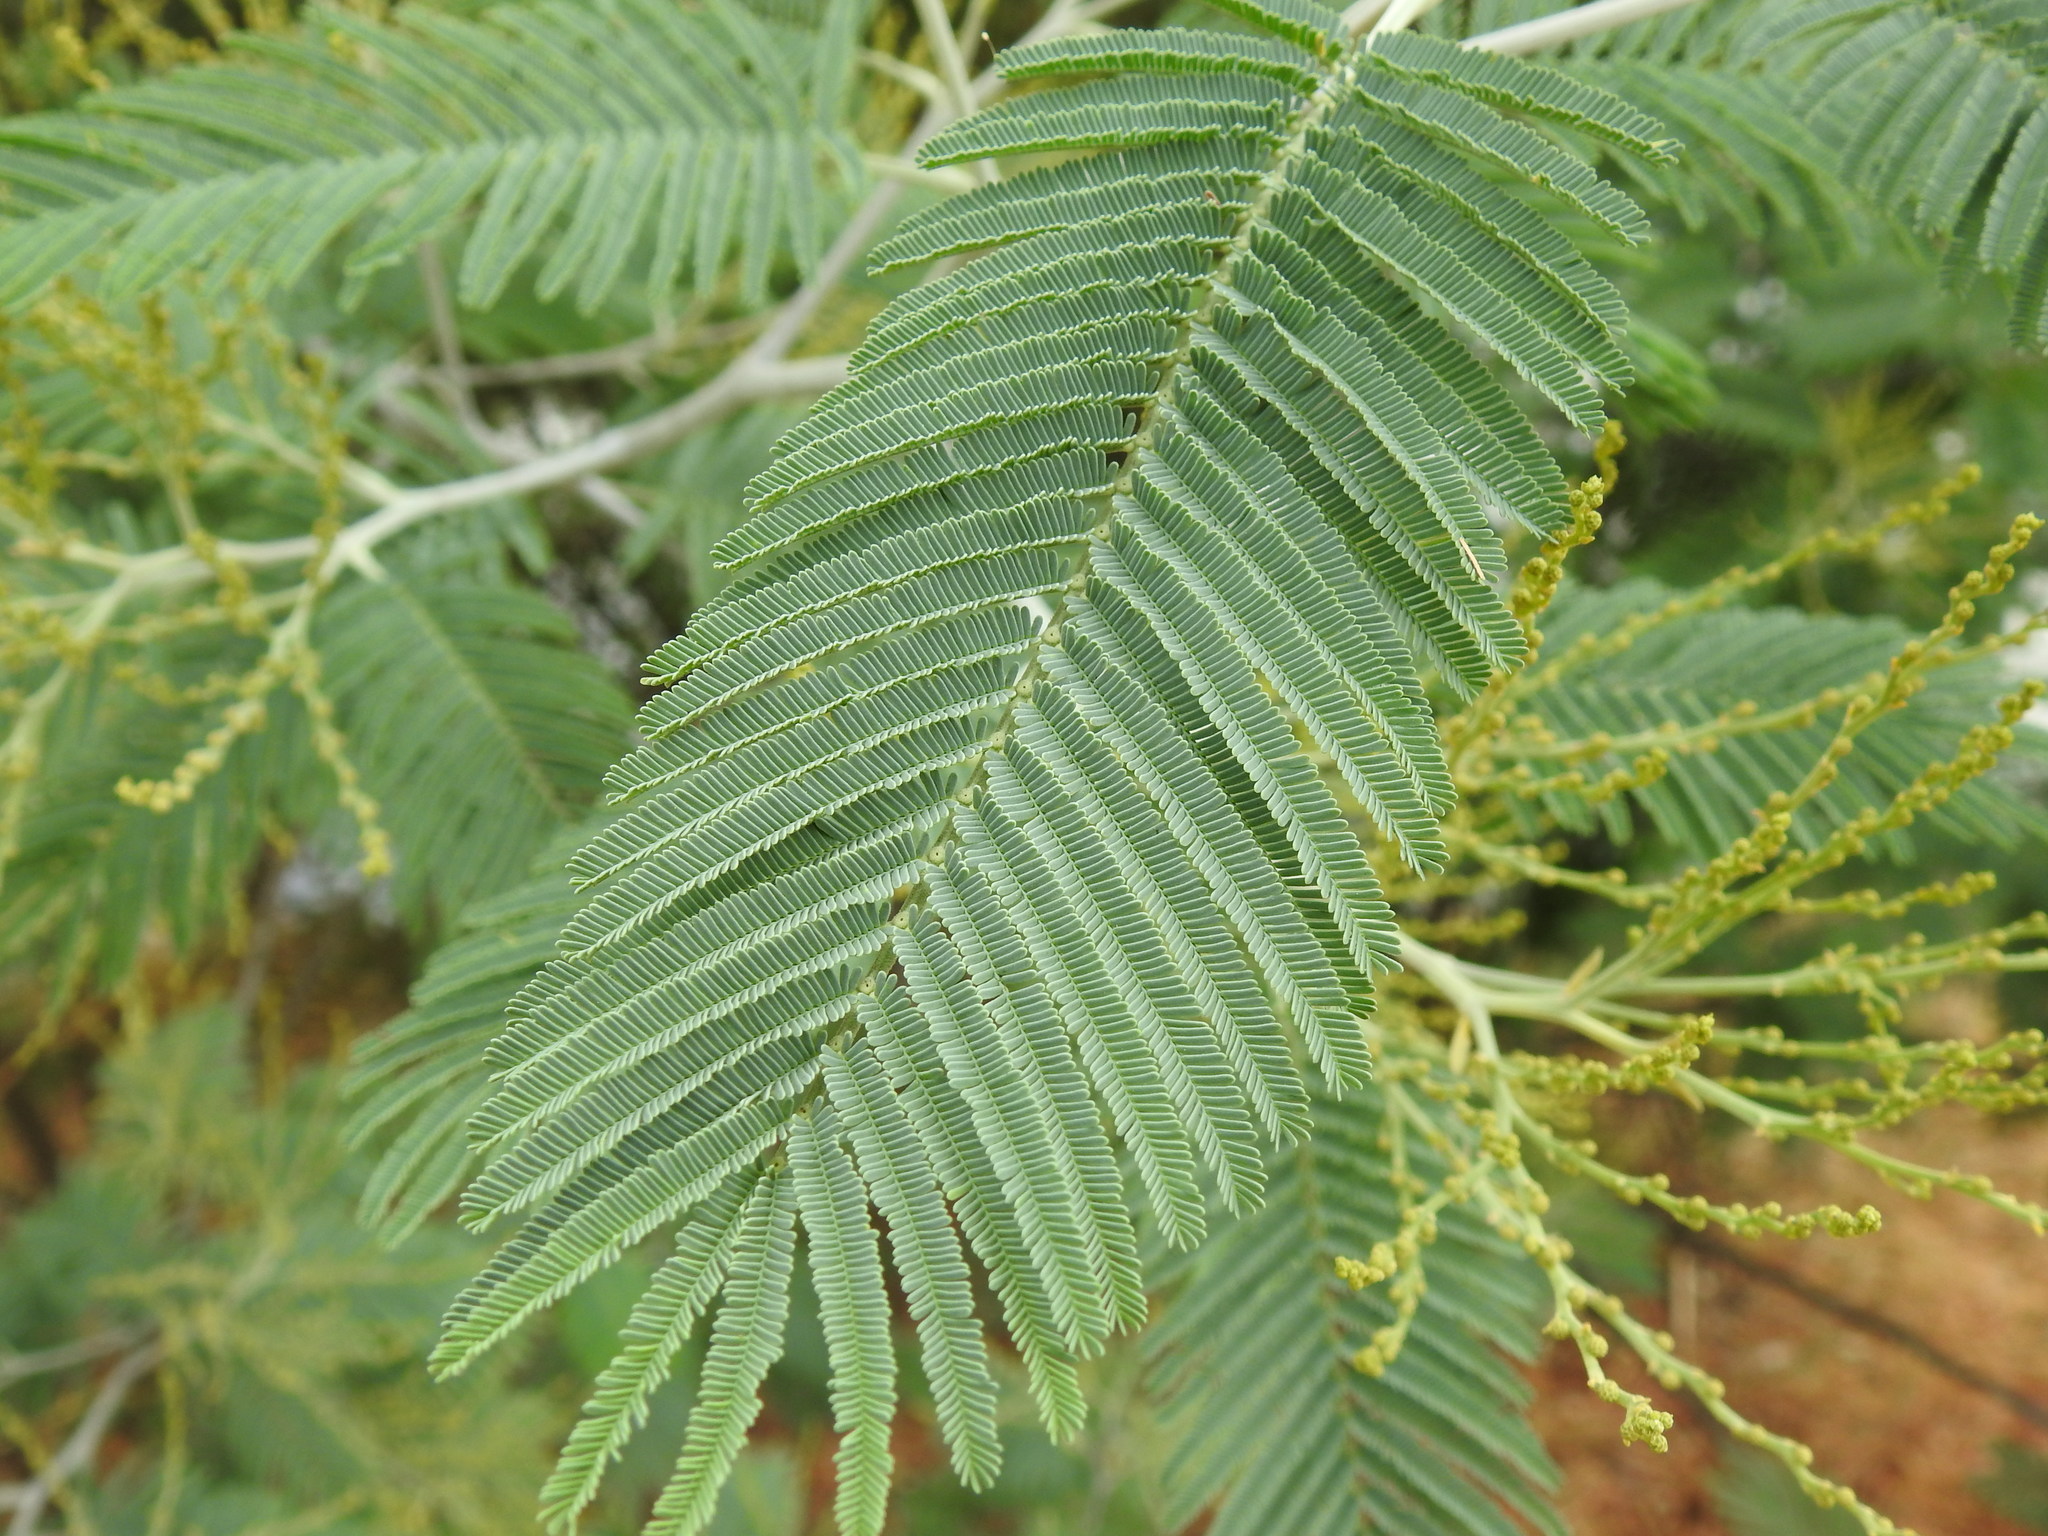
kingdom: Plantae
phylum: Tracheophyta
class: Magnoliopsida
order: Fabales
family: Fabaceae
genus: Acacia
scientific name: Acacia dealbata
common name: Silver wattle
